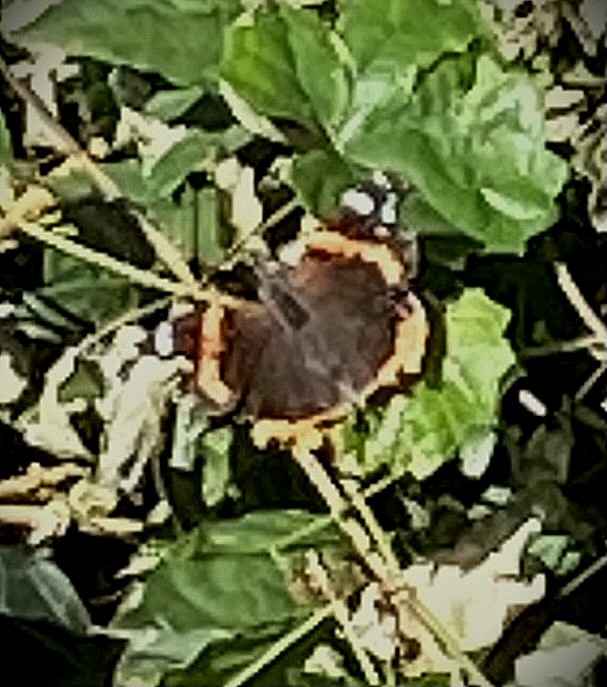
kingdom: Animalia
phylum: Arthropoda
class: Insecta
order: Lepidoptera
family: Nymphalidae
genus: Vanessa
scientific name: Vanessa atalanta
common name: Red admiral
